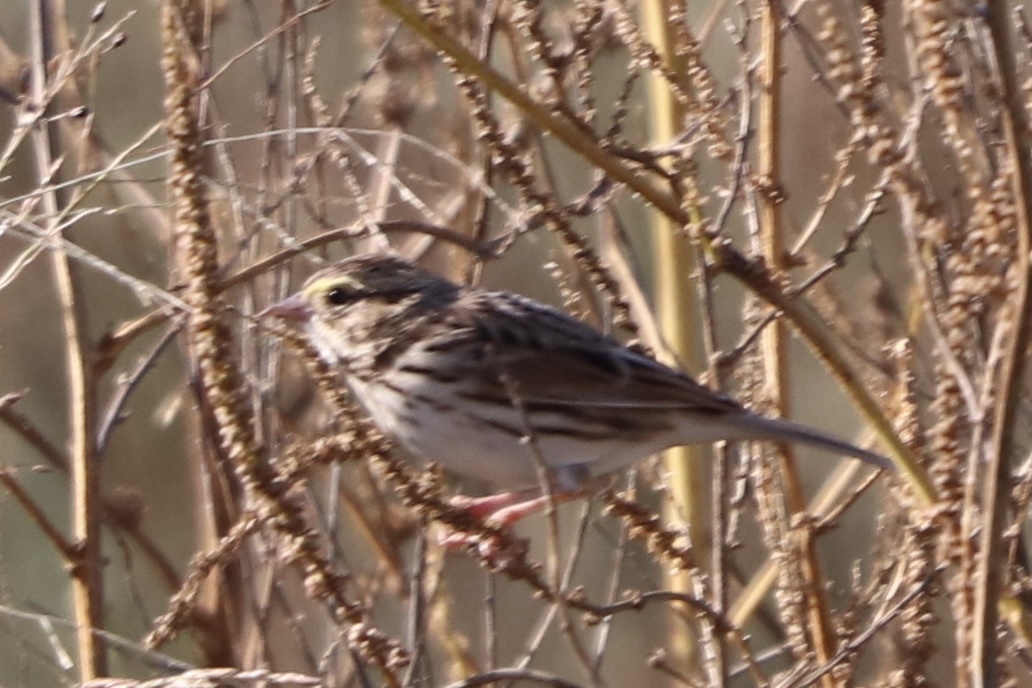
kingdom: Animalia
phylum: Chordata
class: Aves
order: Passeriformes
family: Passerellidae
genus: Passerculus
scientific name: Passerculus sandwichensis
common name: Savannah sparrow
